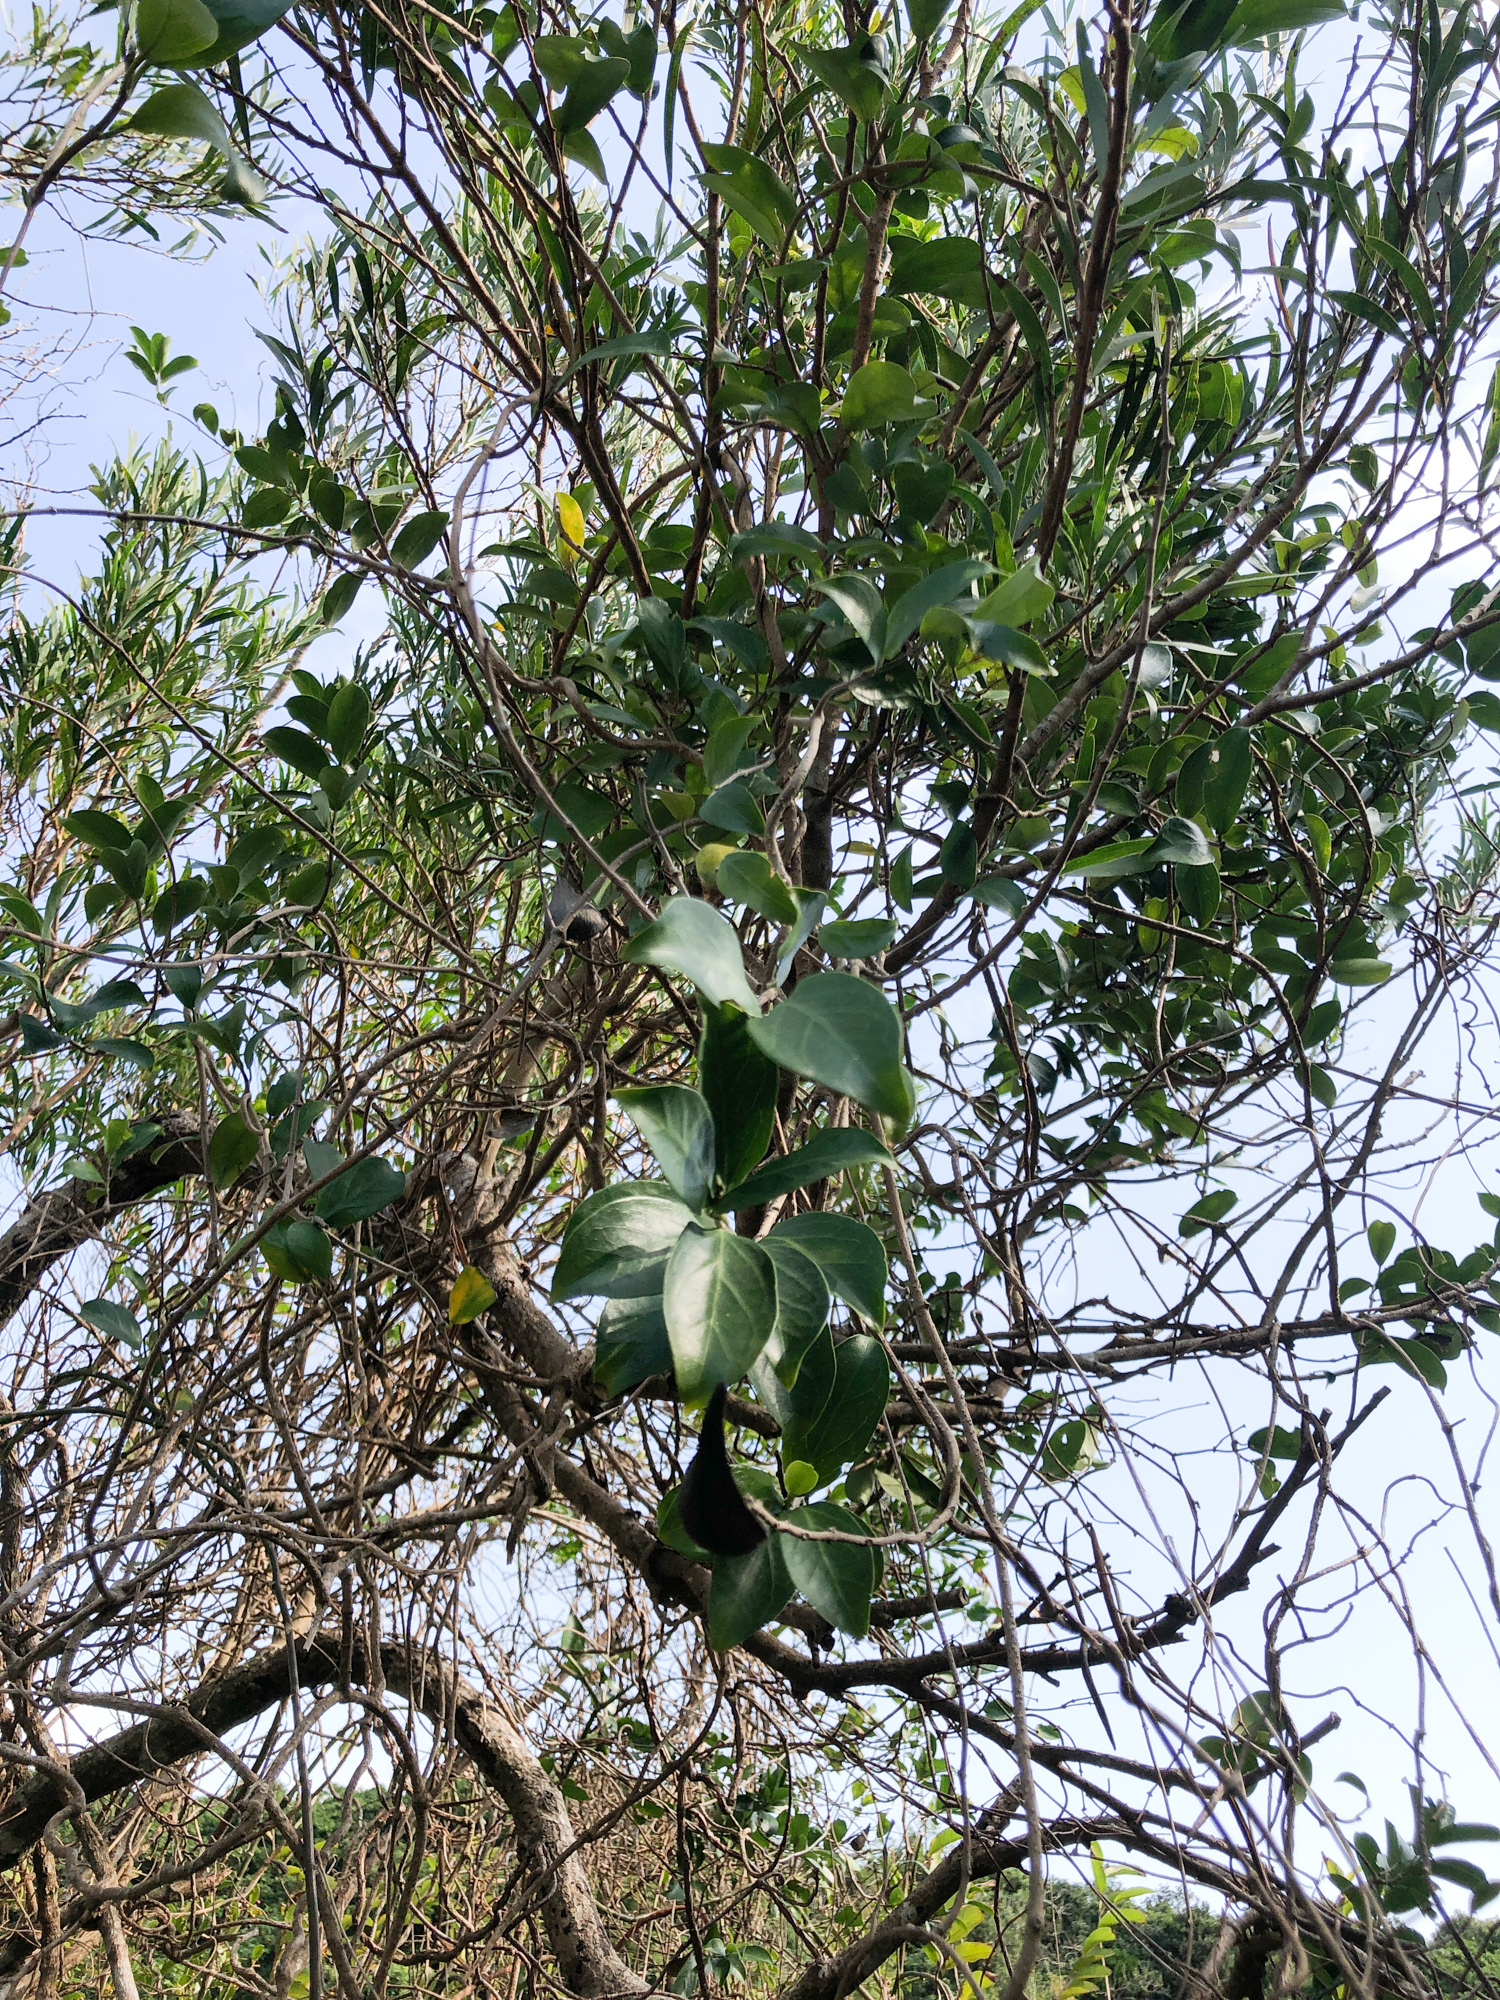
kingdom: Plantae
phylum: Tracheophyta
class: Magnoliopsida
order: Gentianales
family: Apocynaceae
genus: Gymnema
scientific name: Gymnema sylvestre
